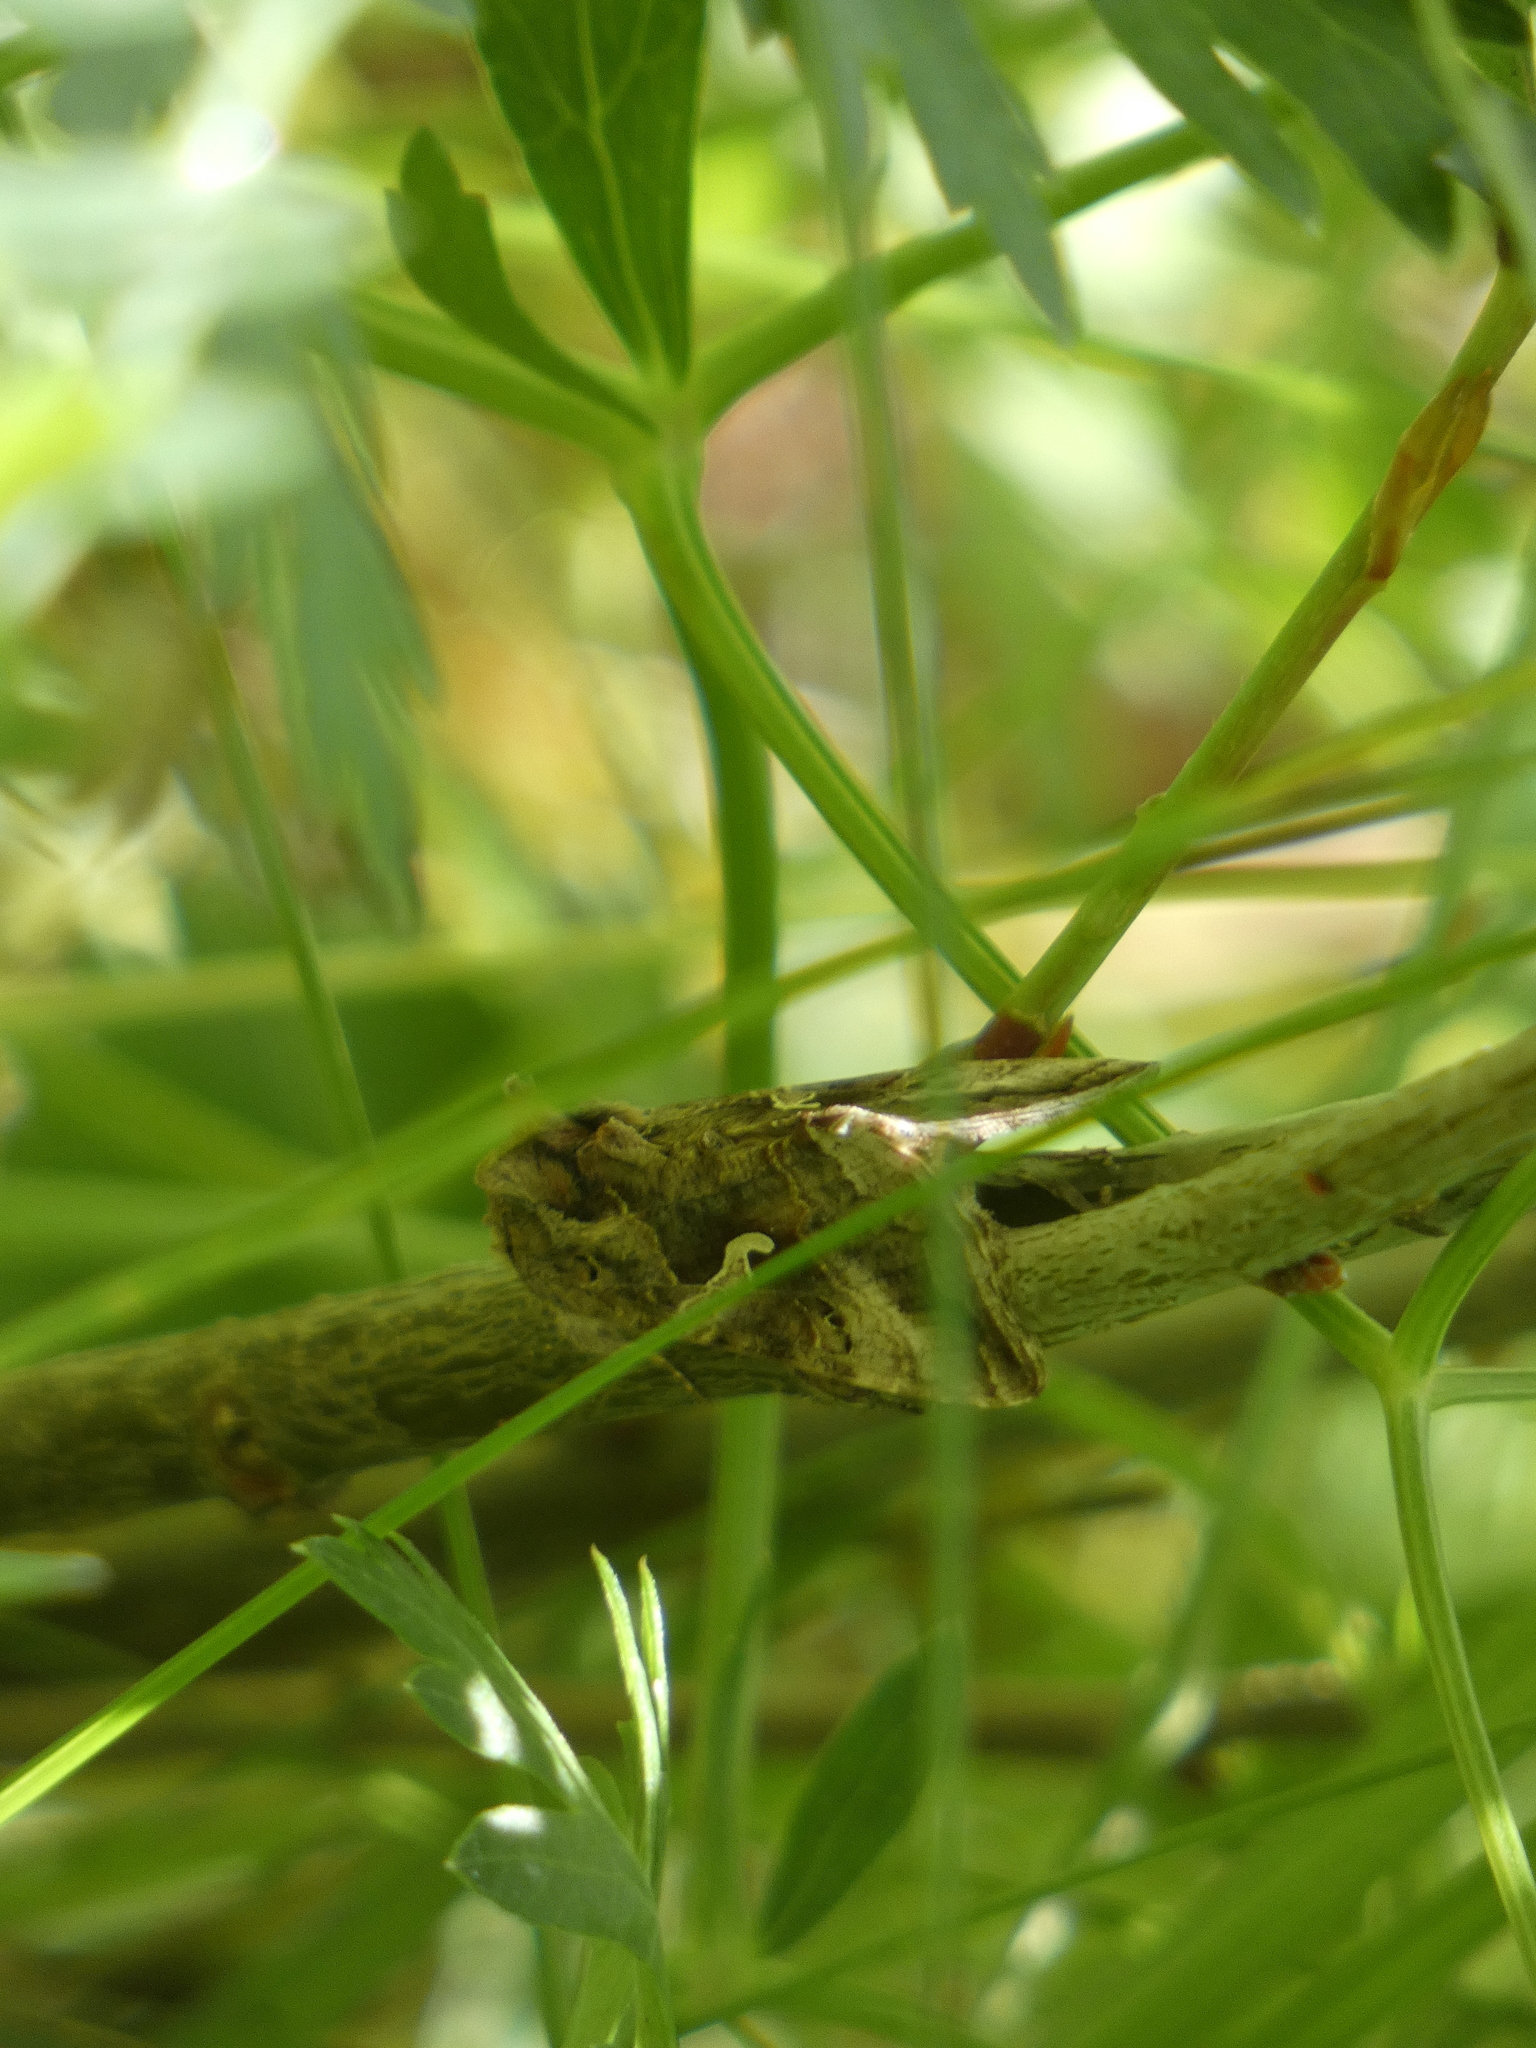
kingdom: Animalia
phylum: Arthropoda
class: Insecta
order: Lepidoptera
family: Noctuidae
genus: Autographa
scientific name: Autographa gamma
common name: Silver y
